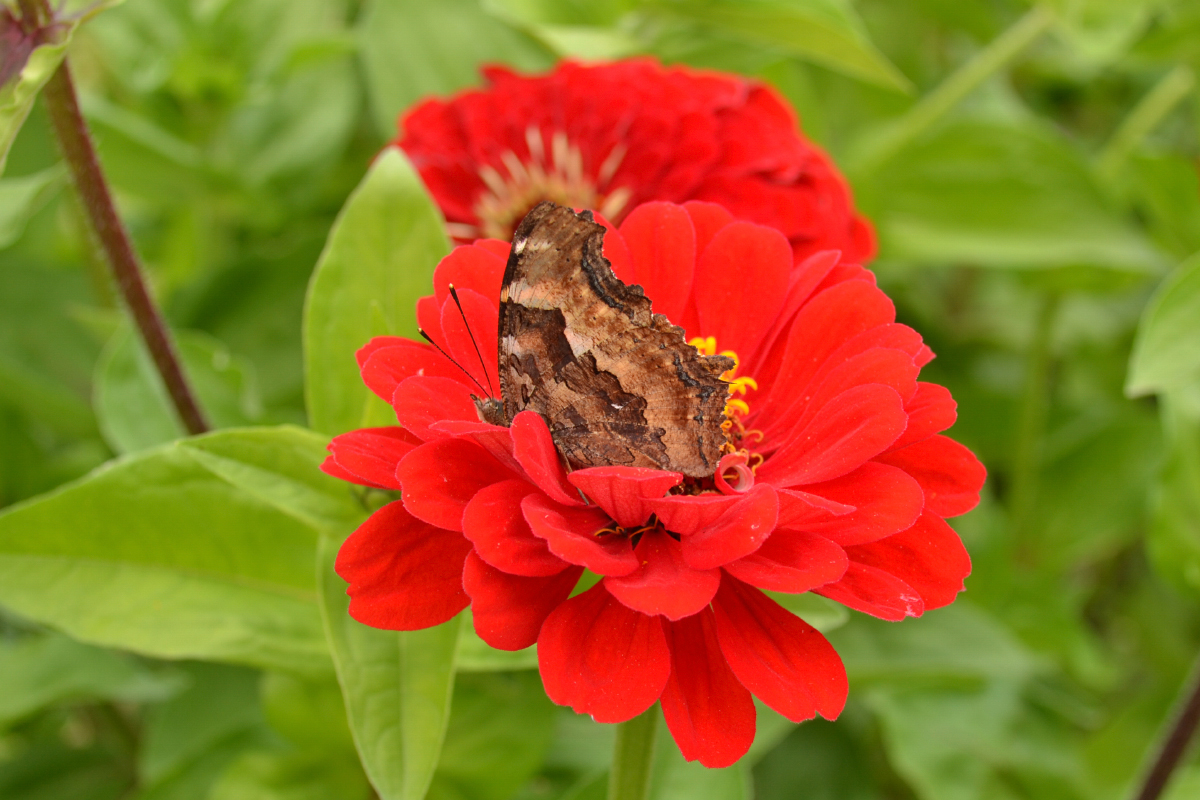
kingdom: Animalia
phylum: Arthropoda
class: Insecta
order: Lepidoptera
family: Nymphalidae
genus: Polygonia
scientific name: Polygonia vaualbum
